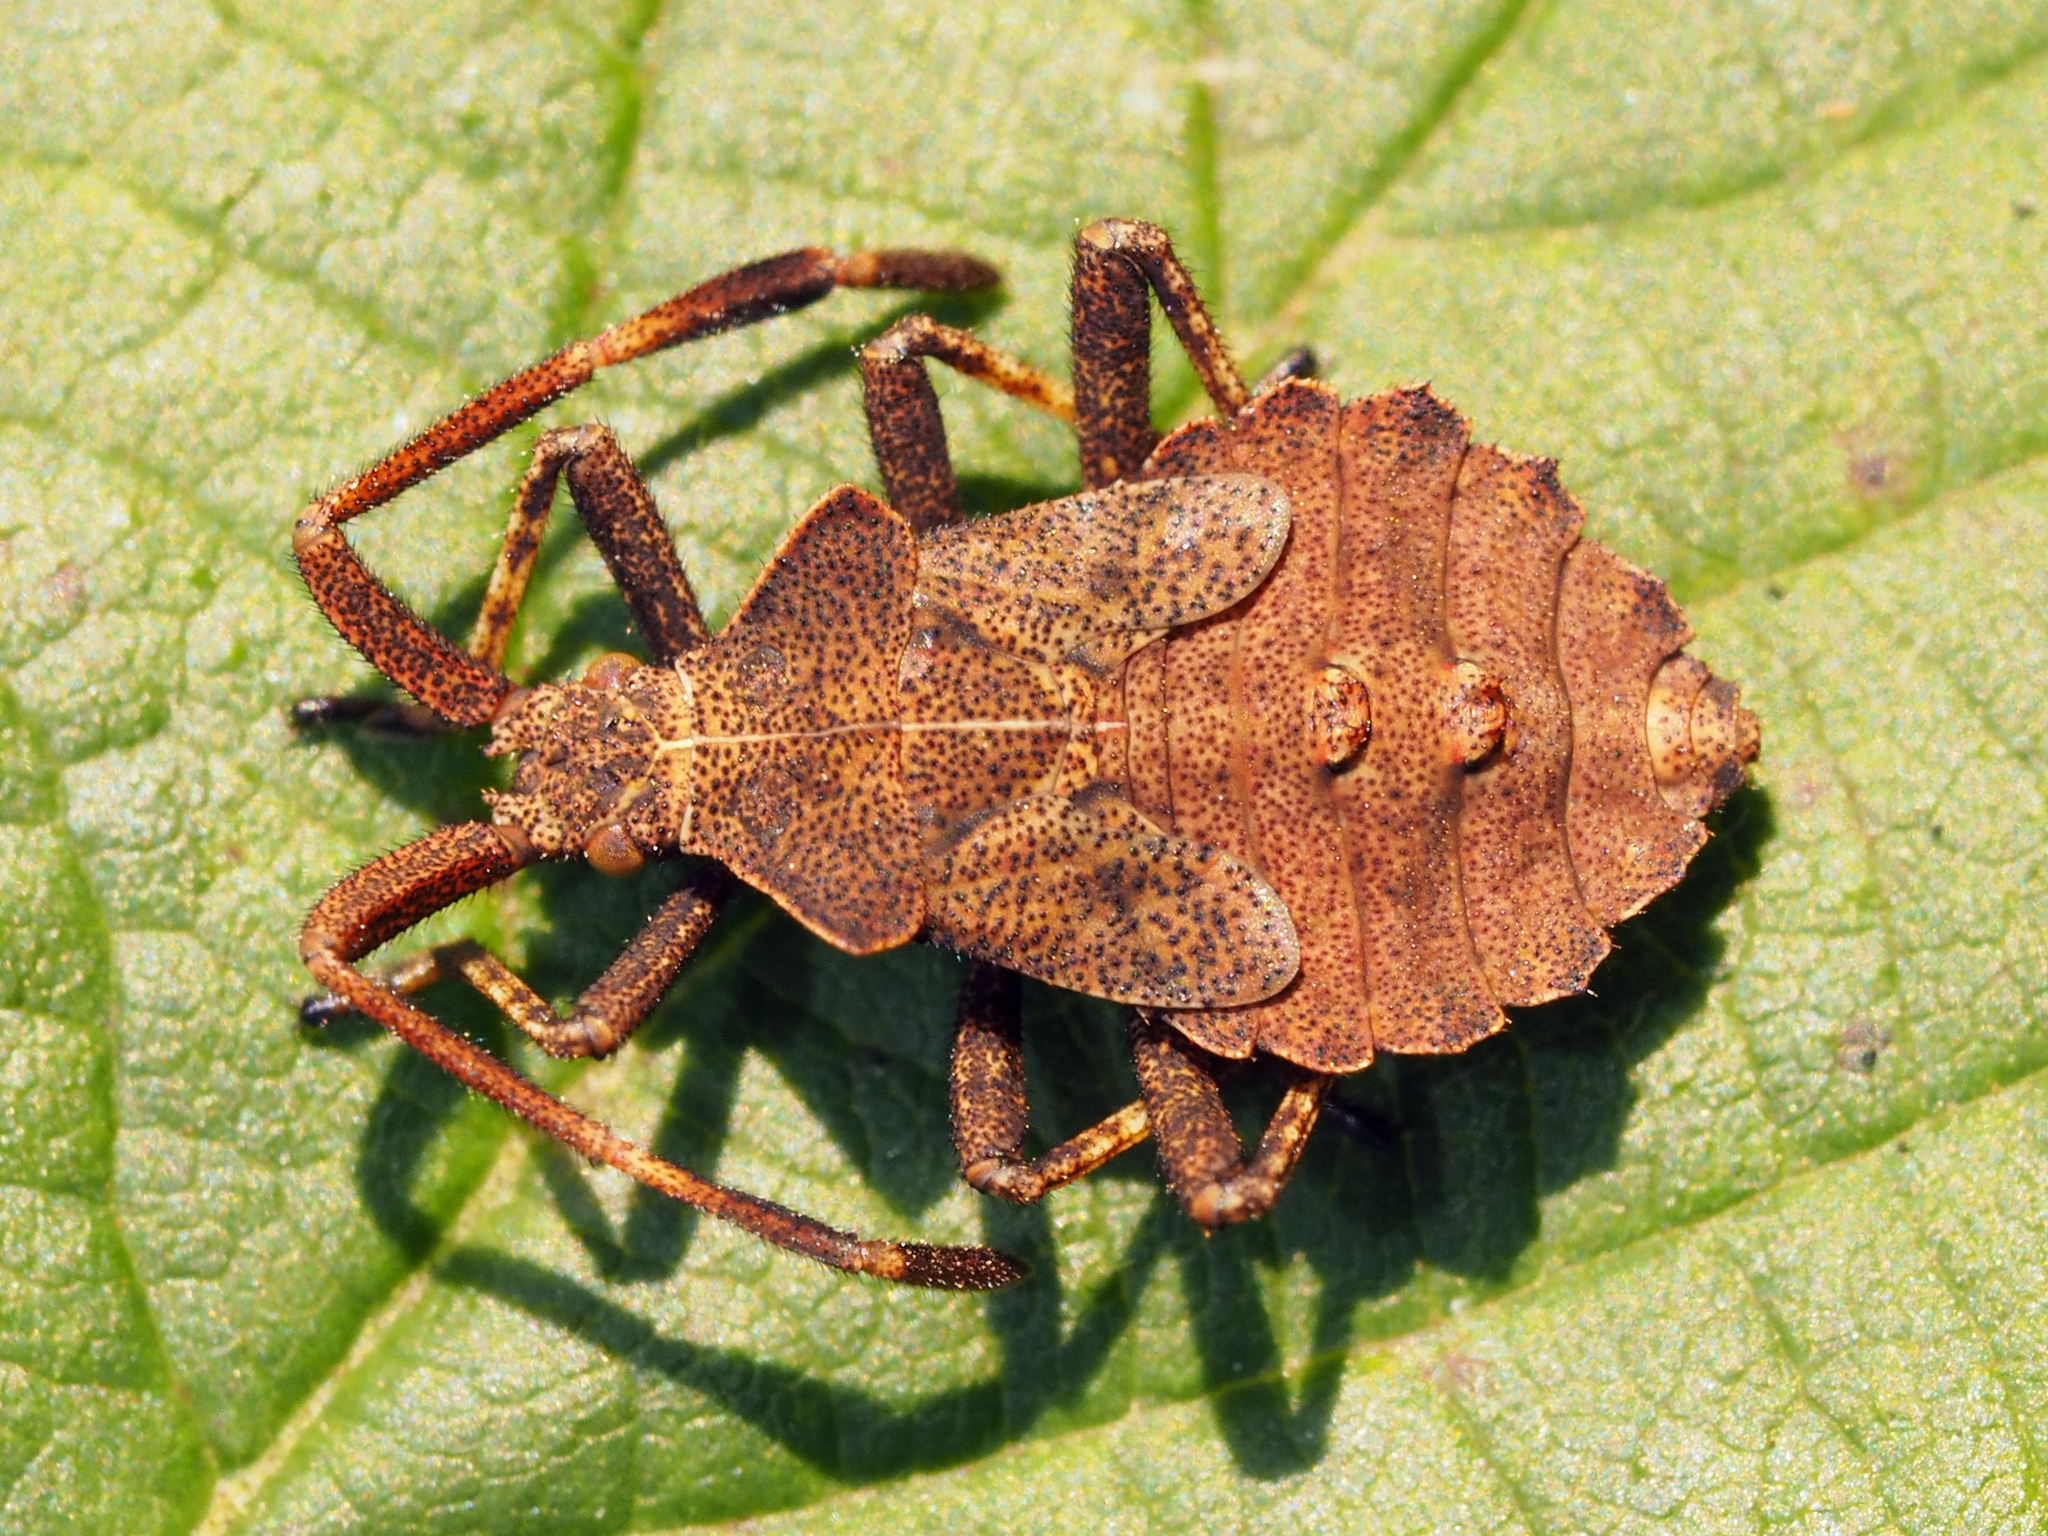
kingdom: Animalia
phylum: Arthropoda
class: Insecta
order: Hemiptera
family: Coreidae
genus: Coreus
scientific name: Coreus marginatus
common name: Dock bug
